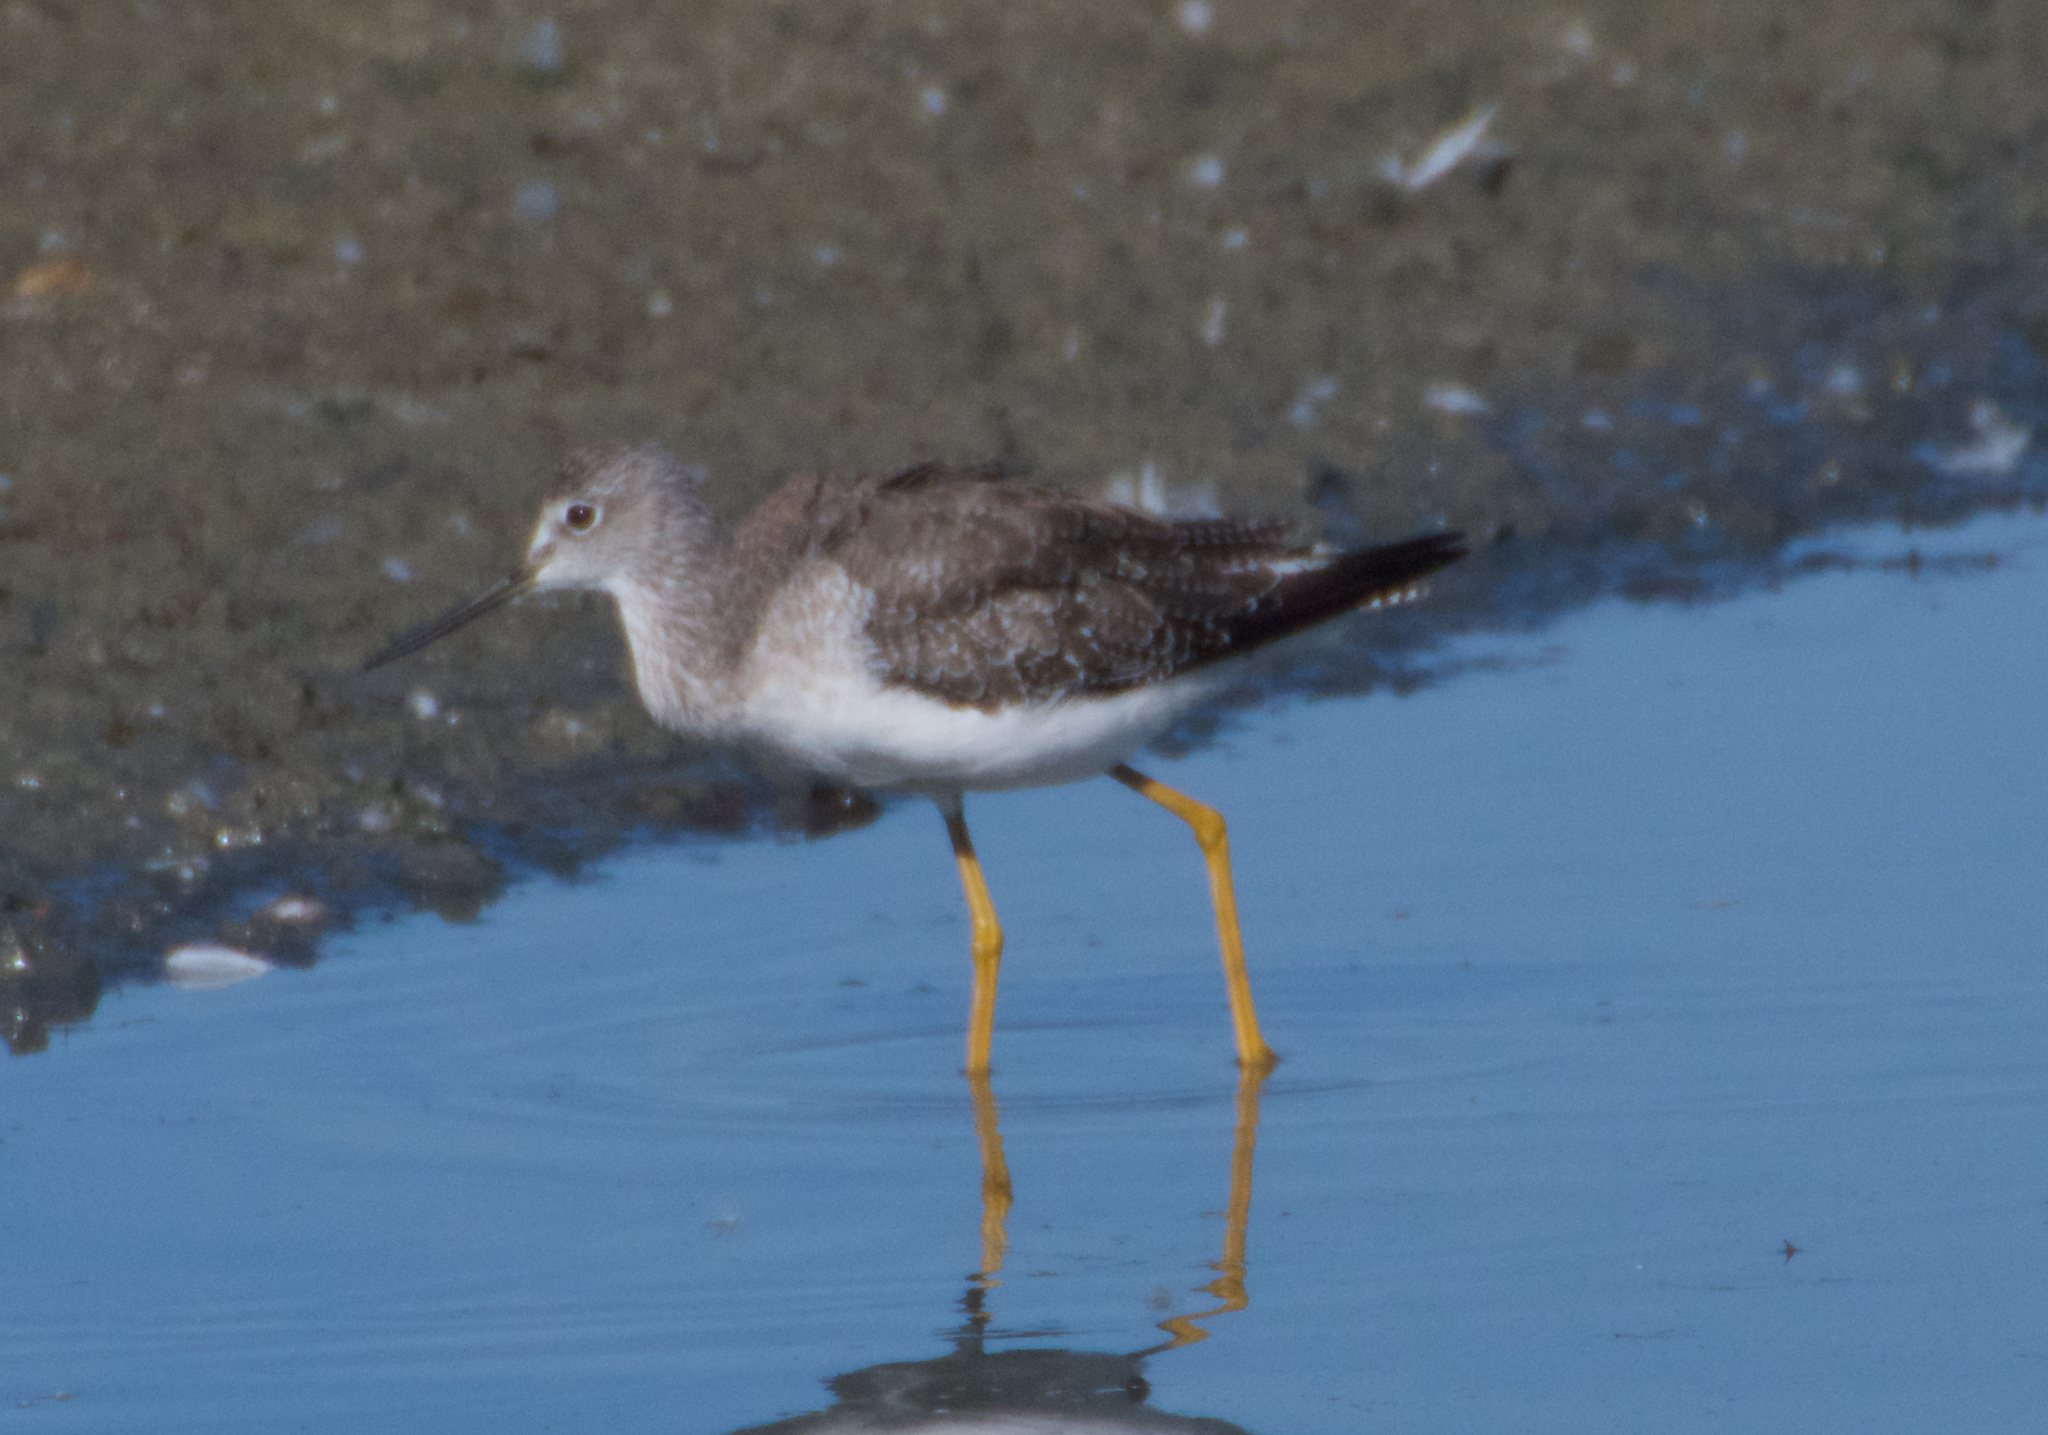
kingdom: Animalia
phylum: Chordata
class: Aves
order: Charadriiformes
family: Scolopacidae
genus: Tringa
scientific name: Tringa melanoleuca
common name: Greater yellowlegs
